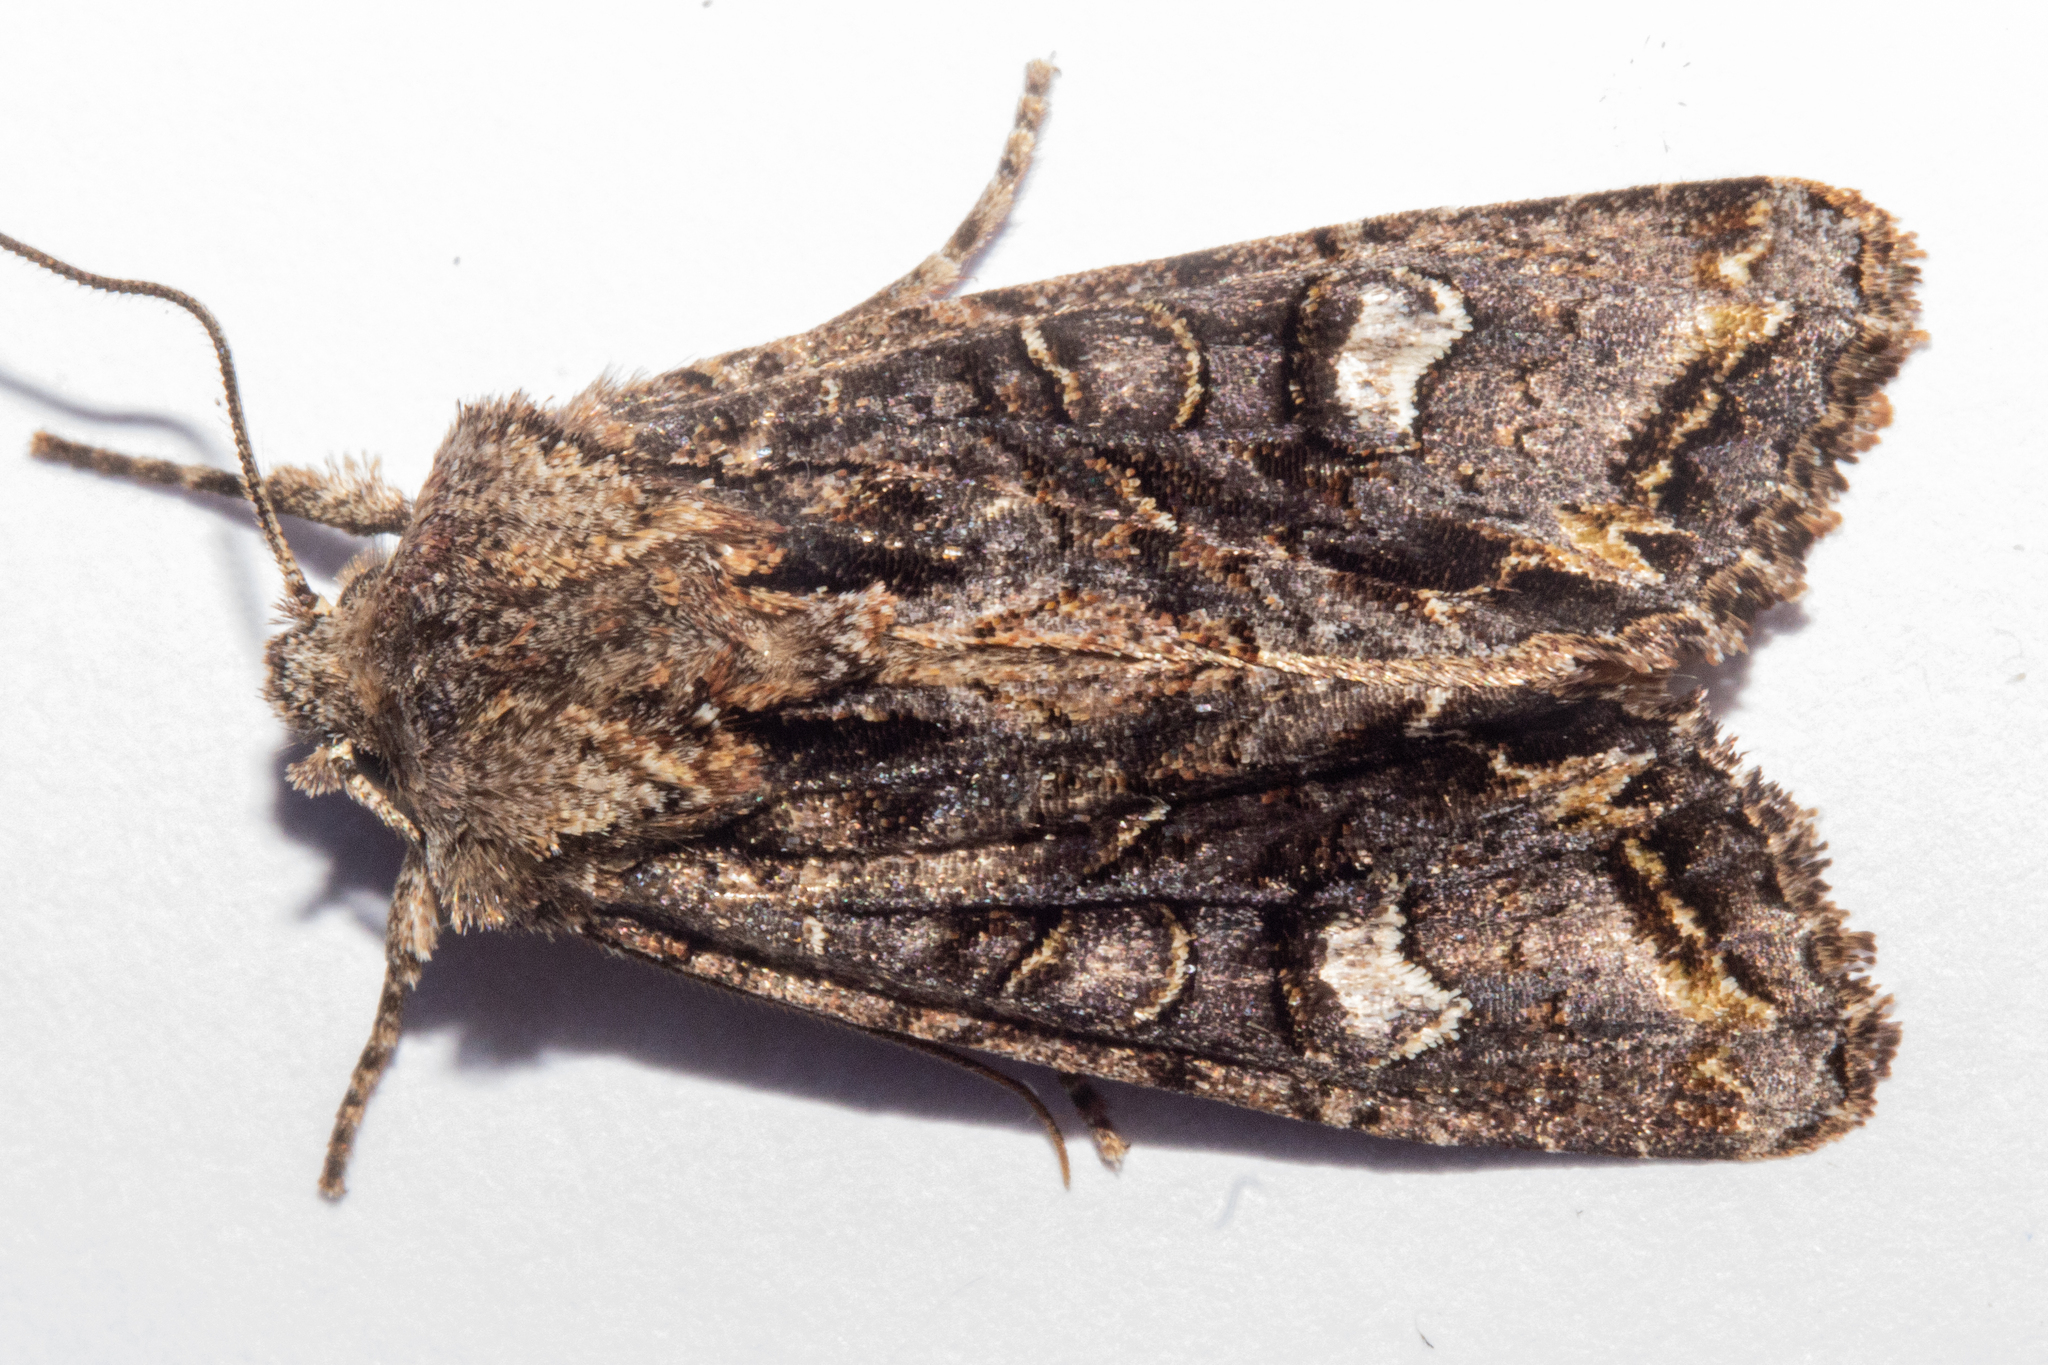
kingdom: Animalia
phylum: Arthropoda
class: Insecta
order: Lepidoptera
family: Noctuidae
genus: Ichneutica
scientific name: Ichneutica insignis
